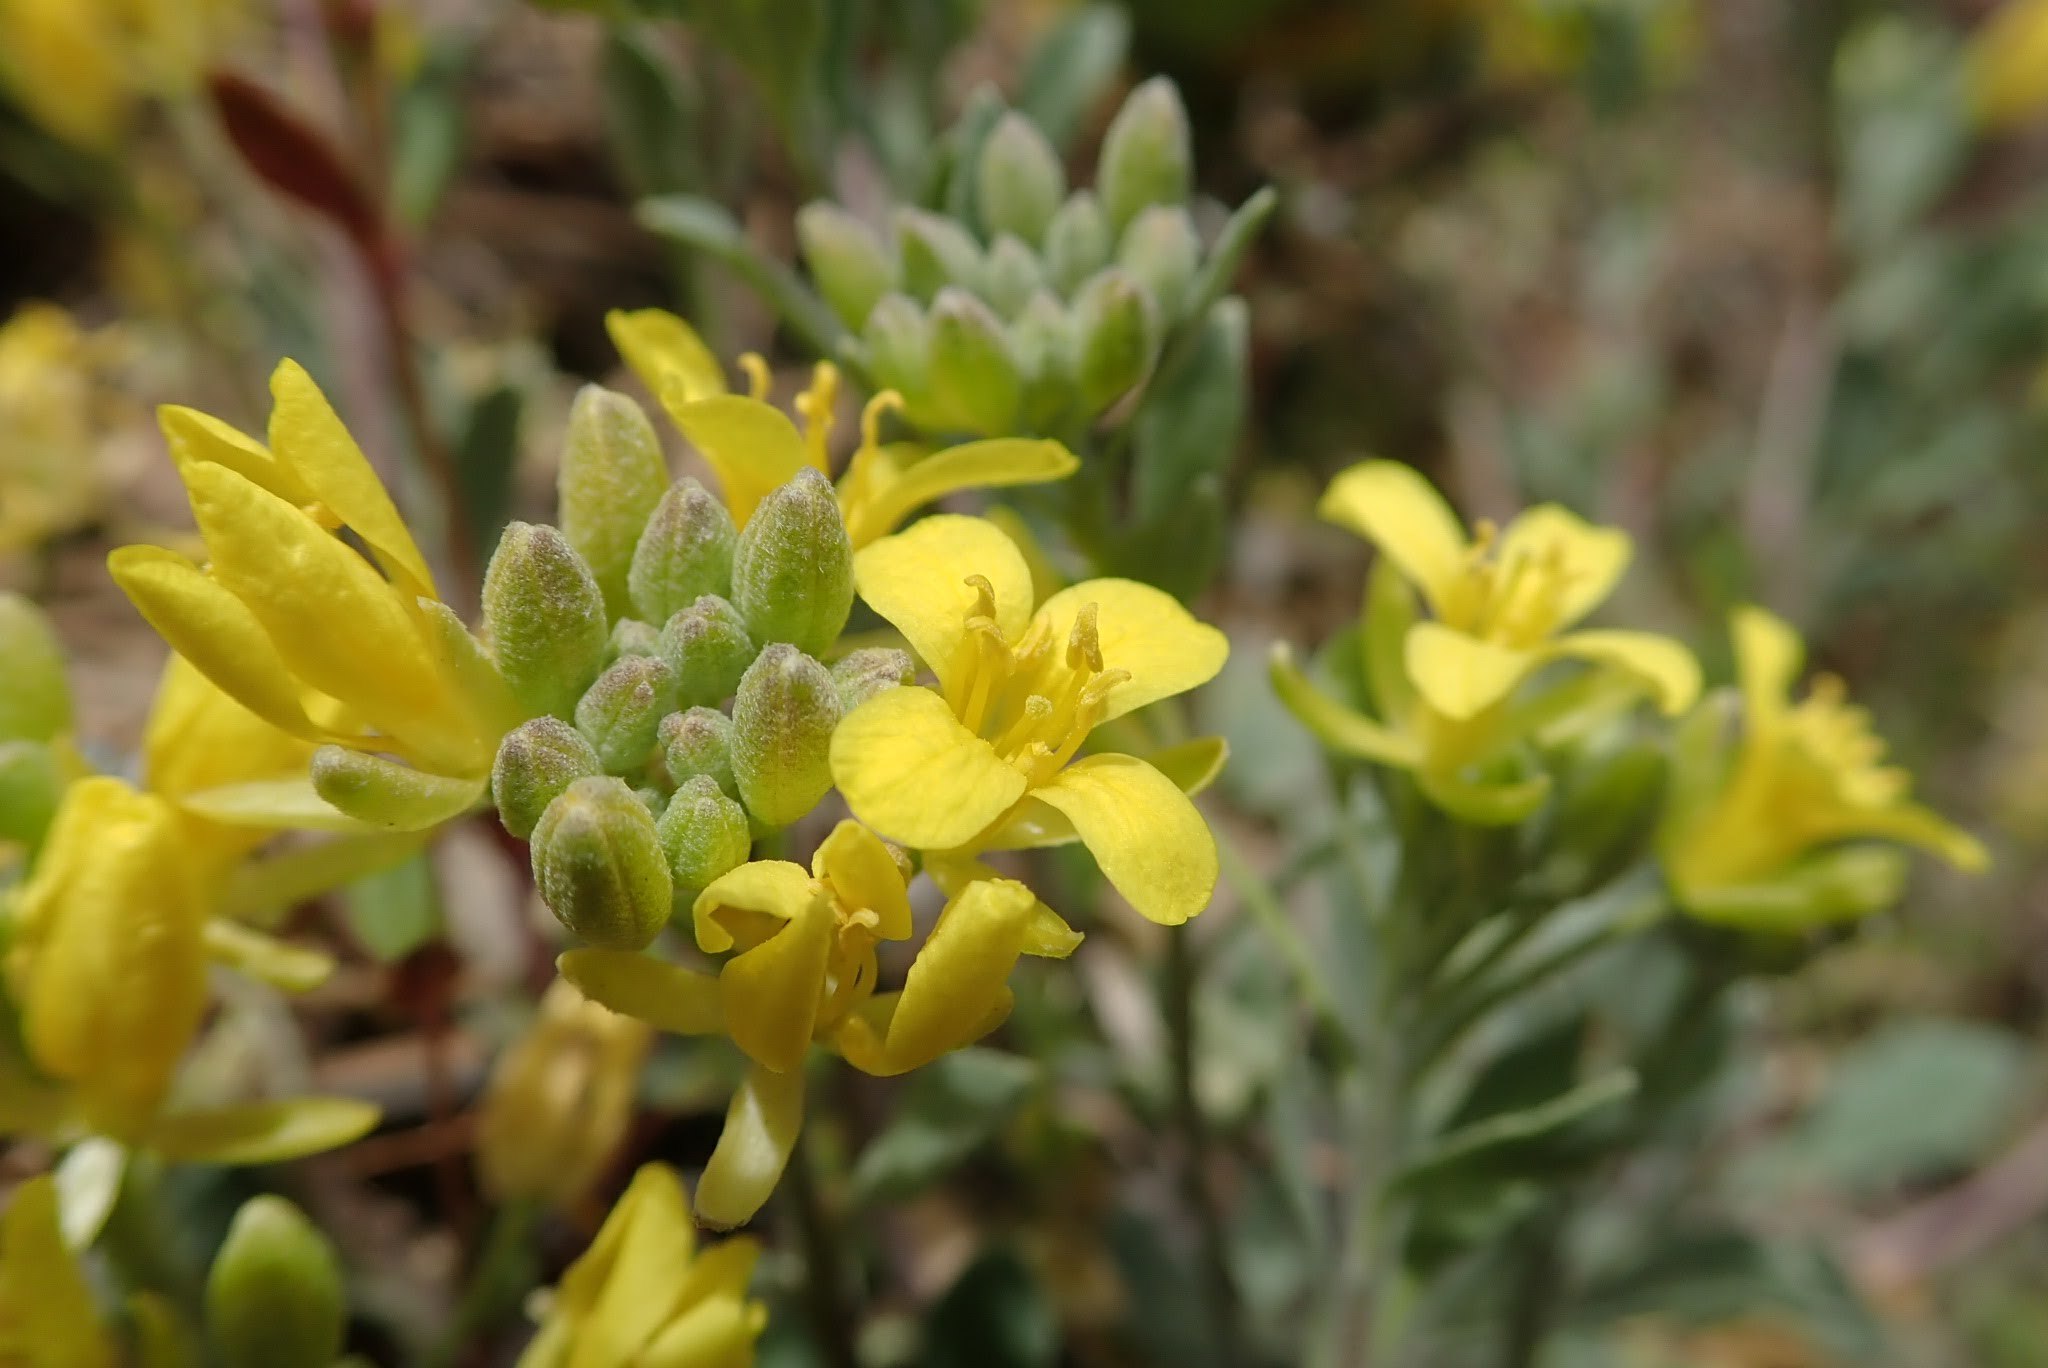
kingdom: Plantae
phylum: Tracheophyta
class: Magnoliopsida
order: Brassicales
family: Brassicaceae
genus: Physaria
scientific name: Physaria vitulifera
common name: Roundtrip twinpod
